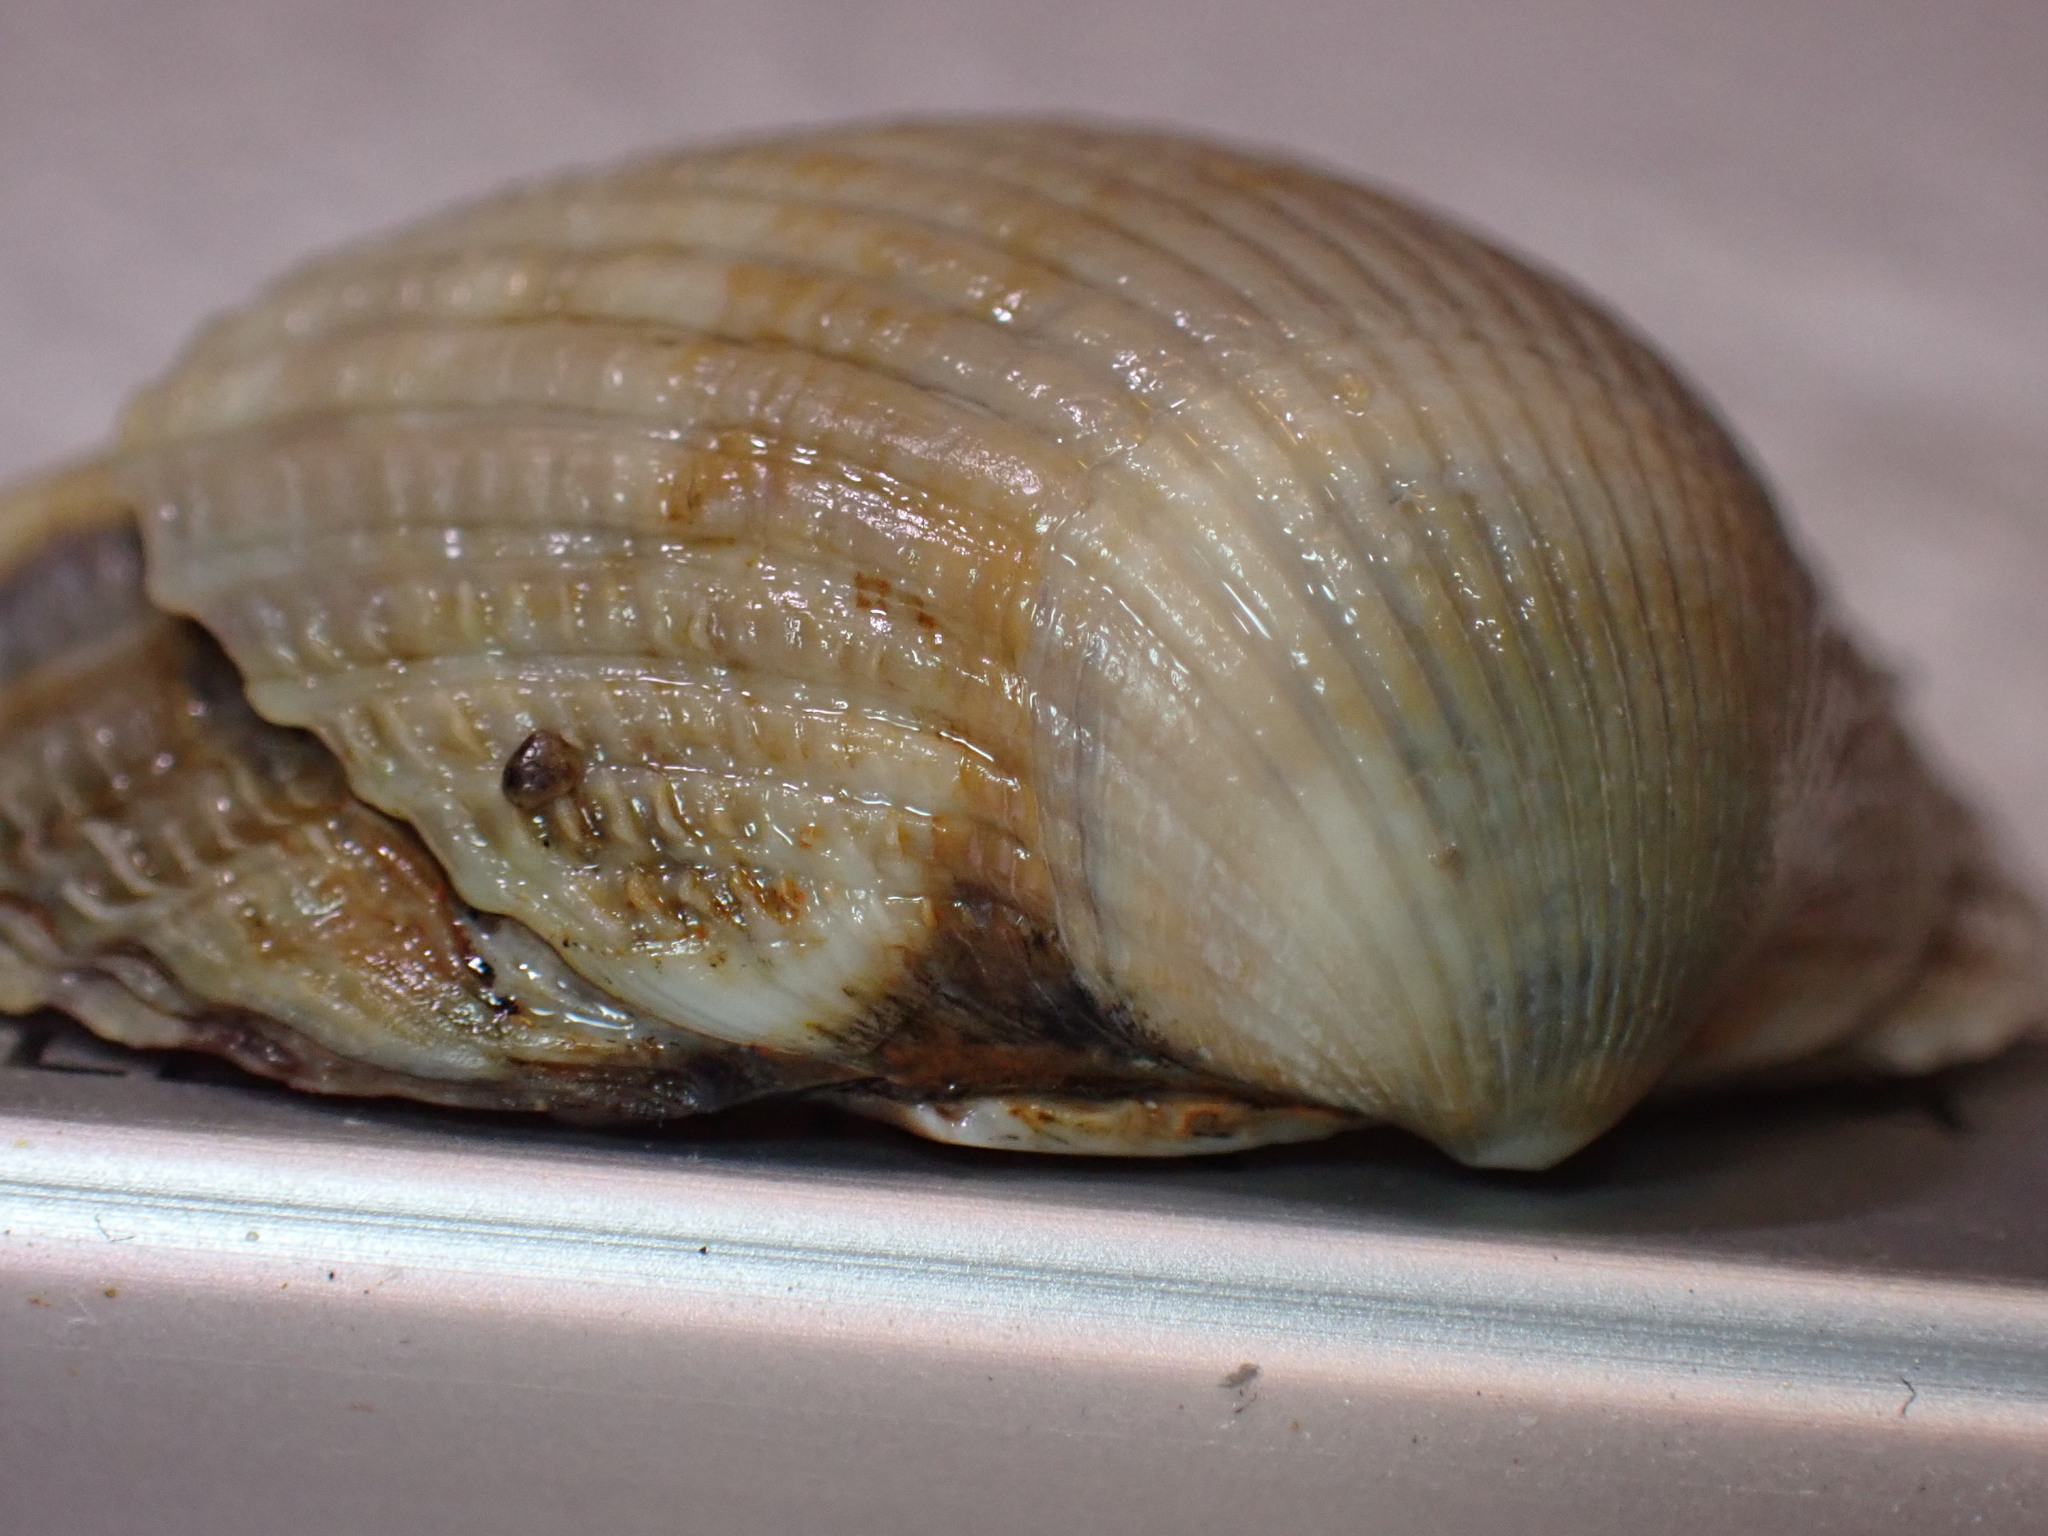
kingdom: Animalia
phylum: Mollusca
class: Bivalvia
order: Cardiida
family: Cardiidae
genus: Cerastoderma
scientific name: Cerastoderma edule
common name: Common cockle
